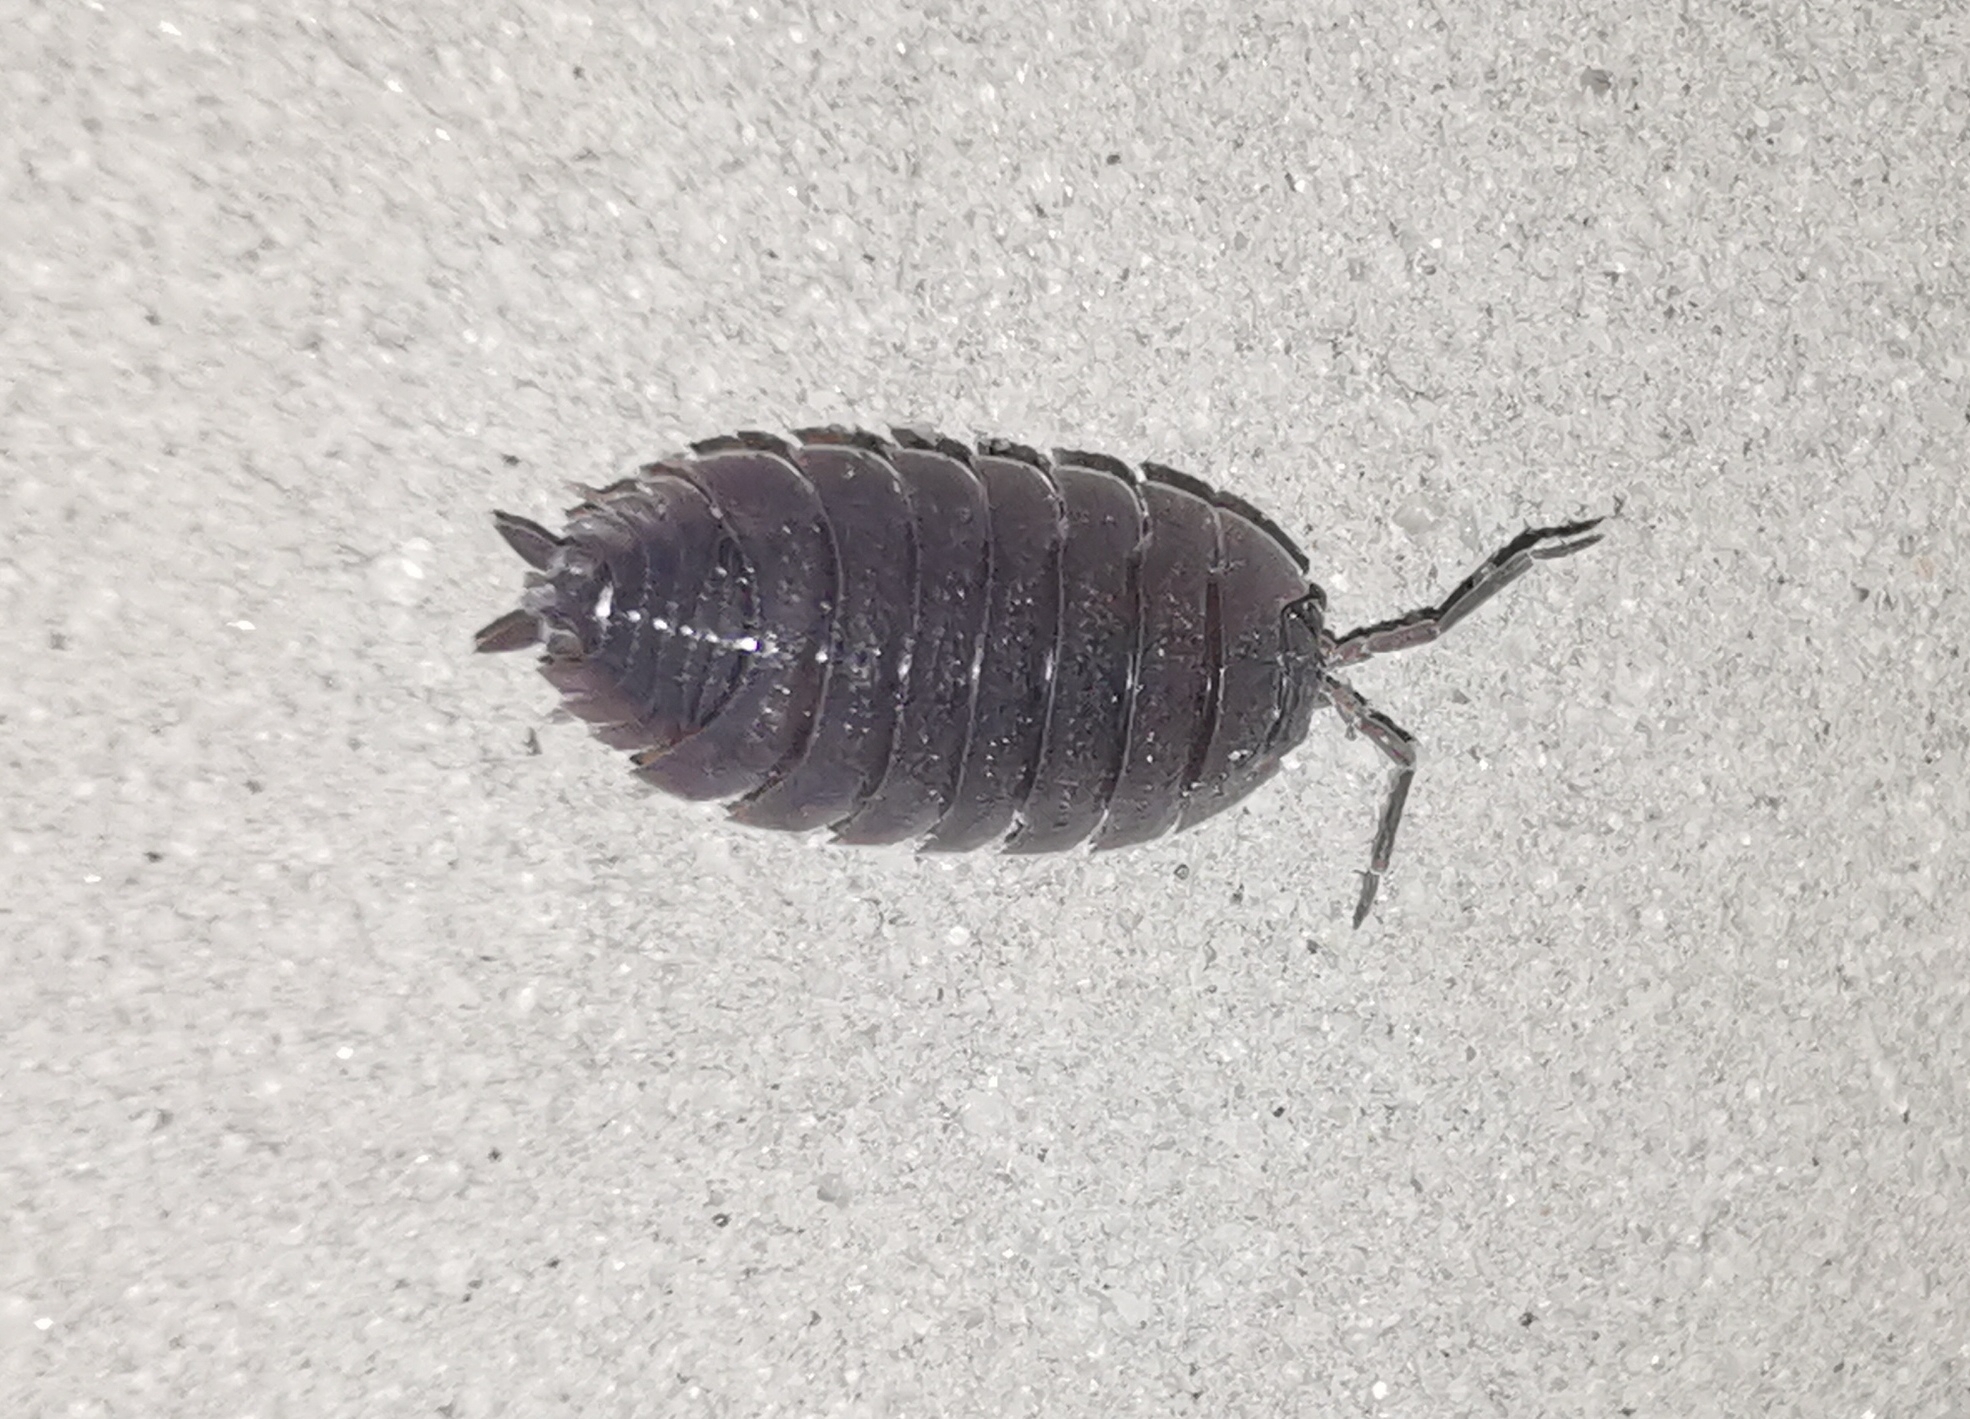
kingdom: Animalia
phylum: Arthropoda
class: Malacostraca
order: Isopoda
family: Porcellionidae
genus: Porcellio
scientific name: Porcellio scaber
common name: Common rough woodlouse
